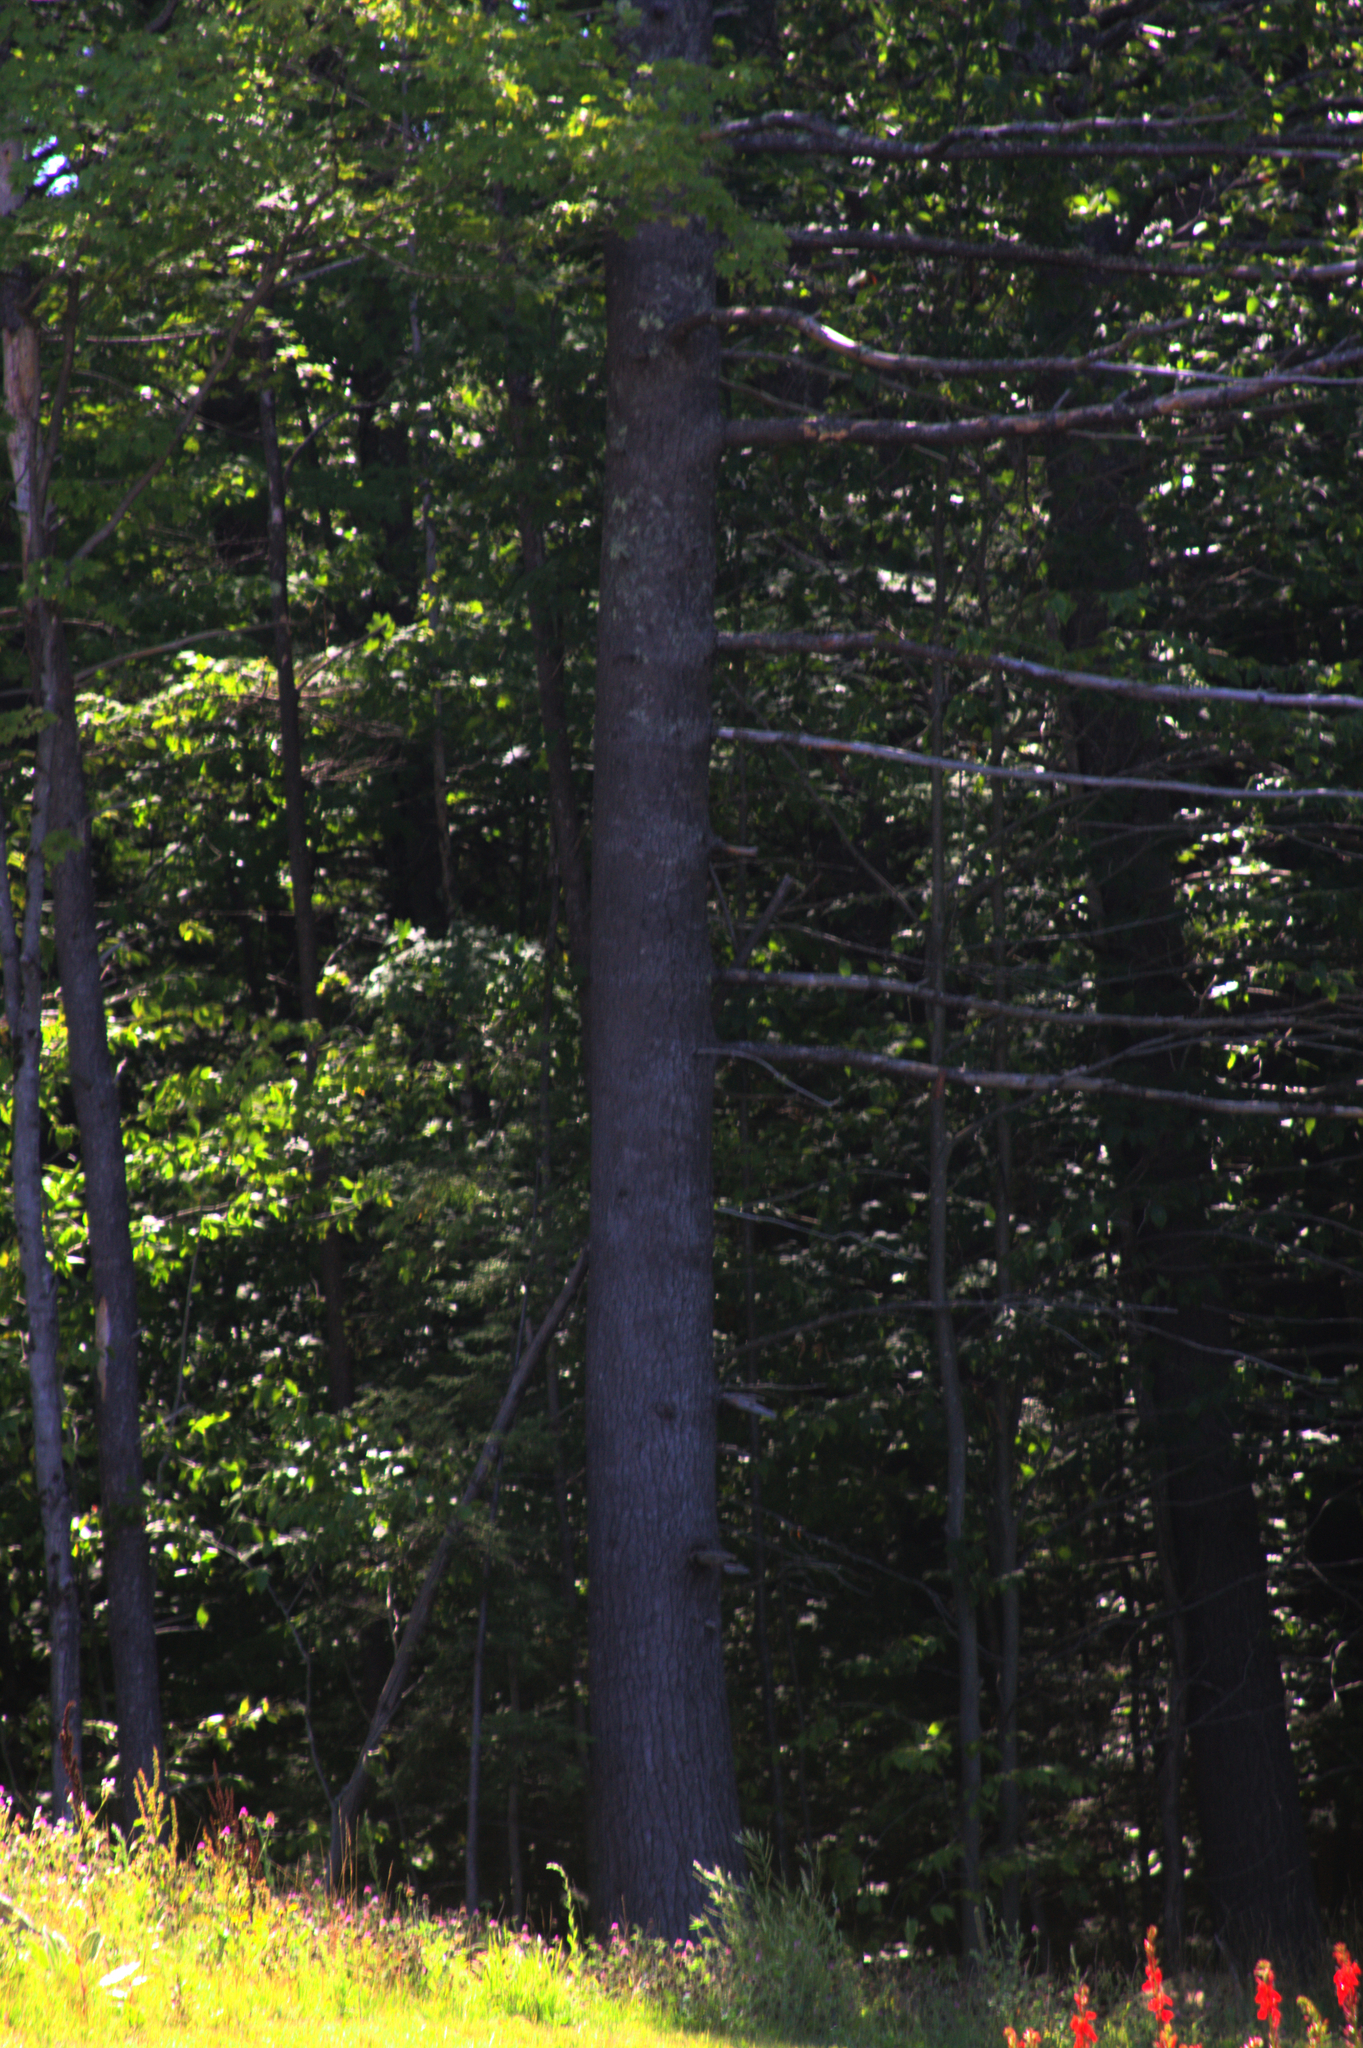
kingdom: Plantae
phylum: Tracheophyta
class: Pinopsida
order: Pinales
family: Pinaceae
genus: Pinus
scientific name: Pinus strobus
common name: Weymouth pine
